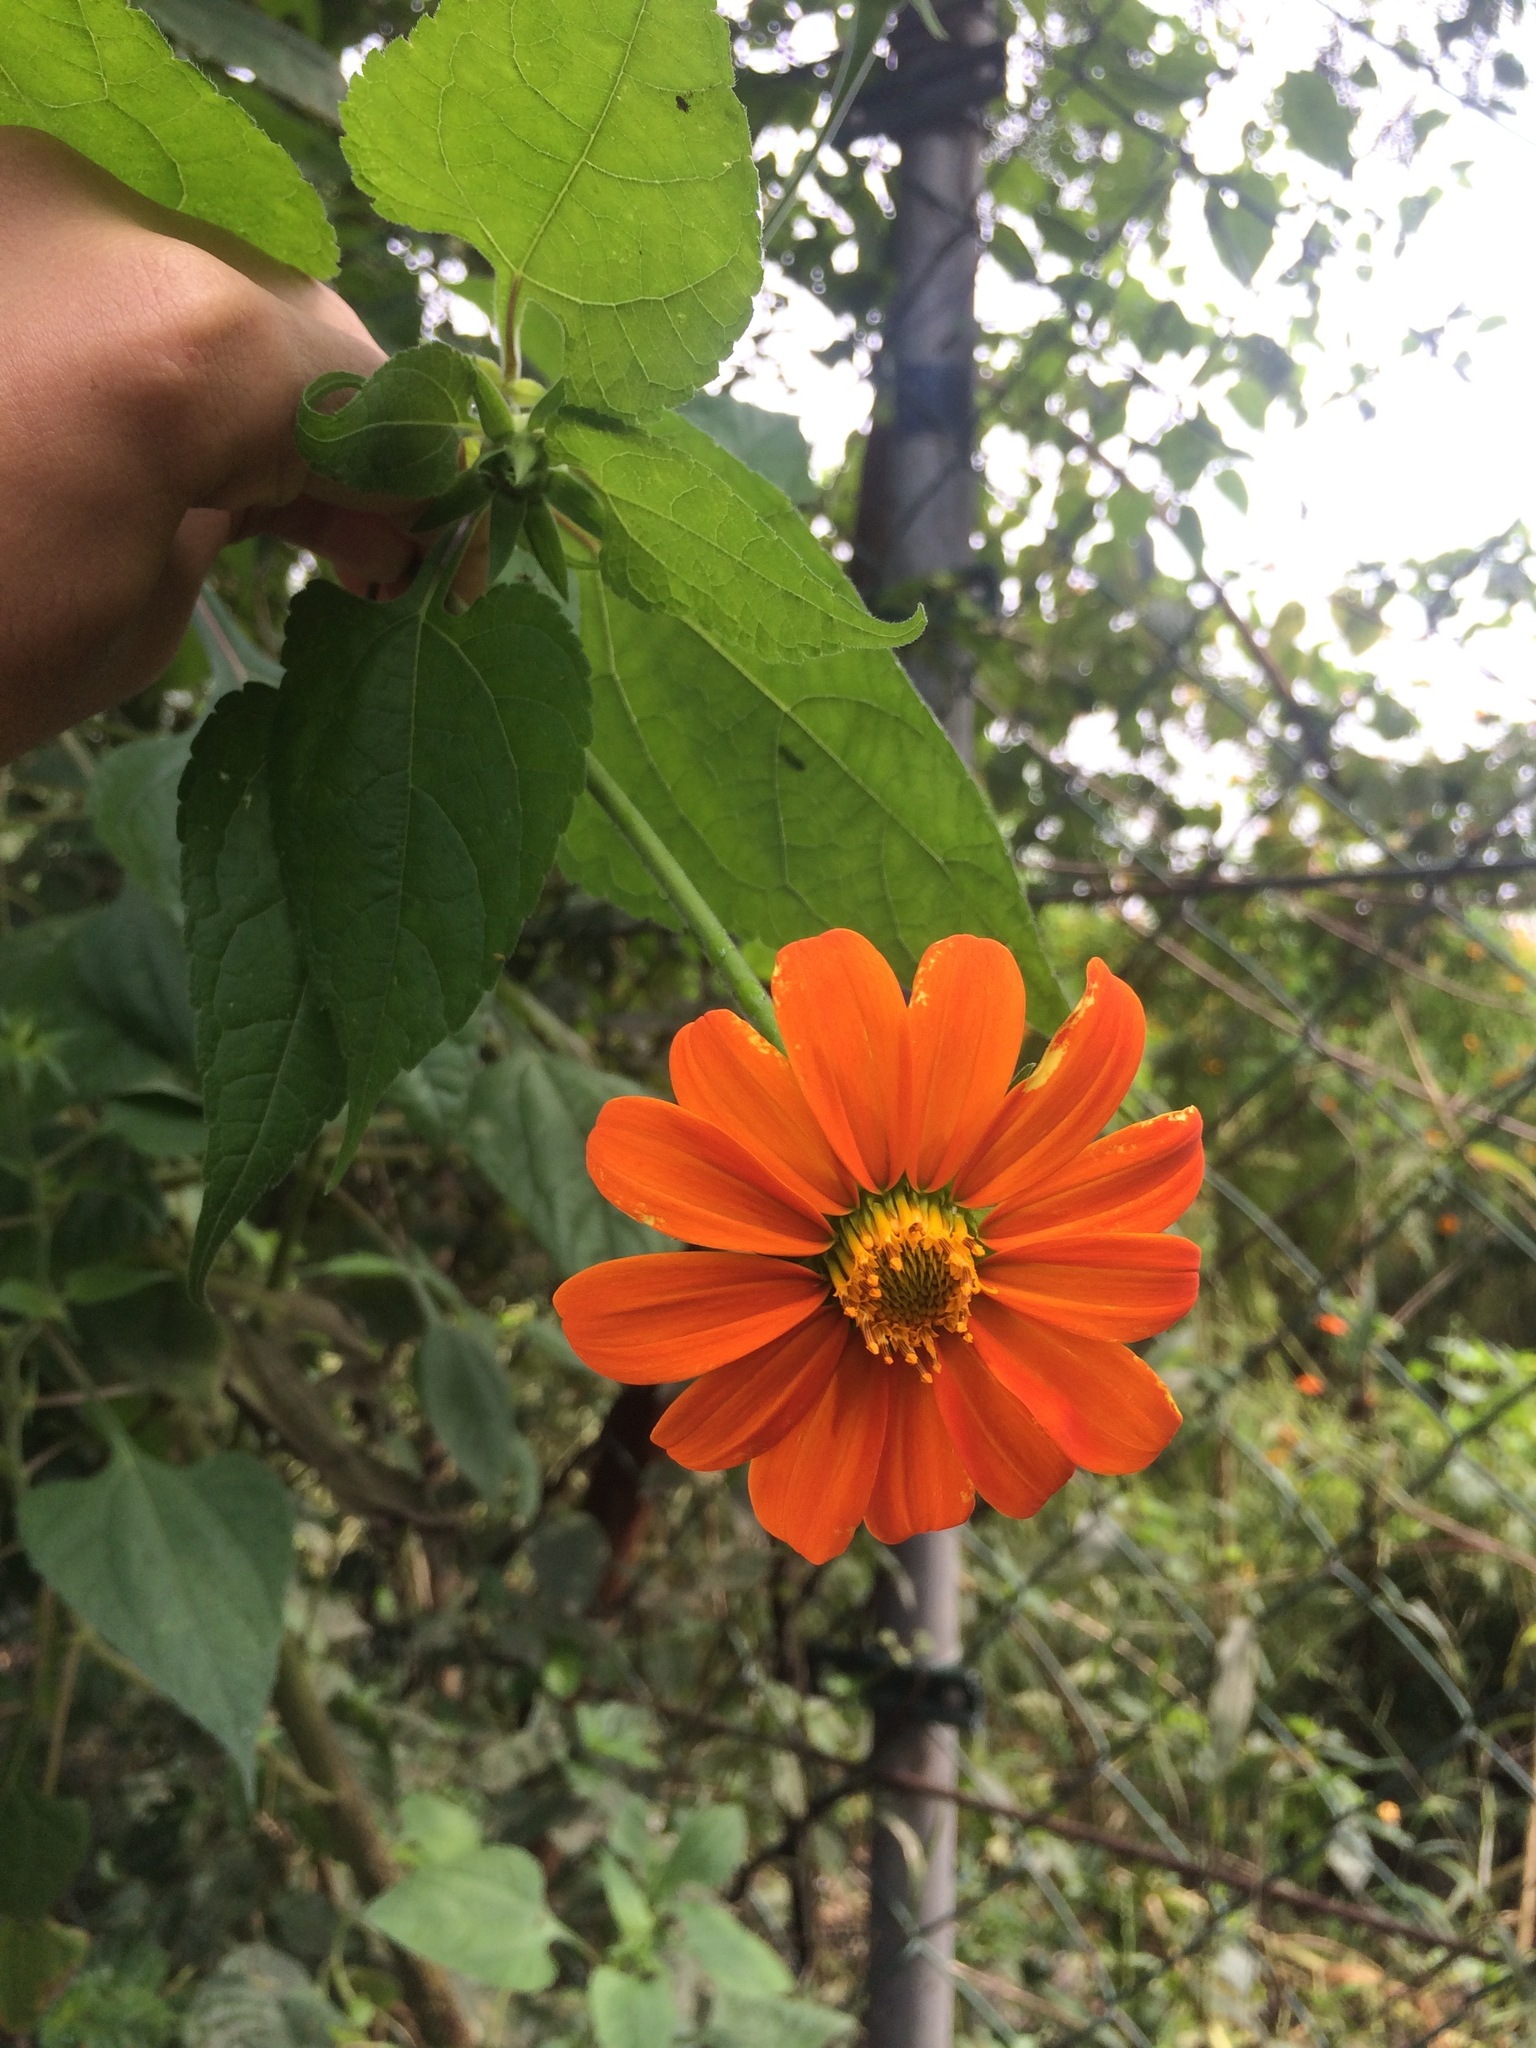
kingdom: Plantae
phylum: Tracheophyta
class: Magnoliopsida
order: Asterales
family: Asteraceae
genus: Tithonia
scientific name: Tithonia rotundifolia
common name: Sunflower
